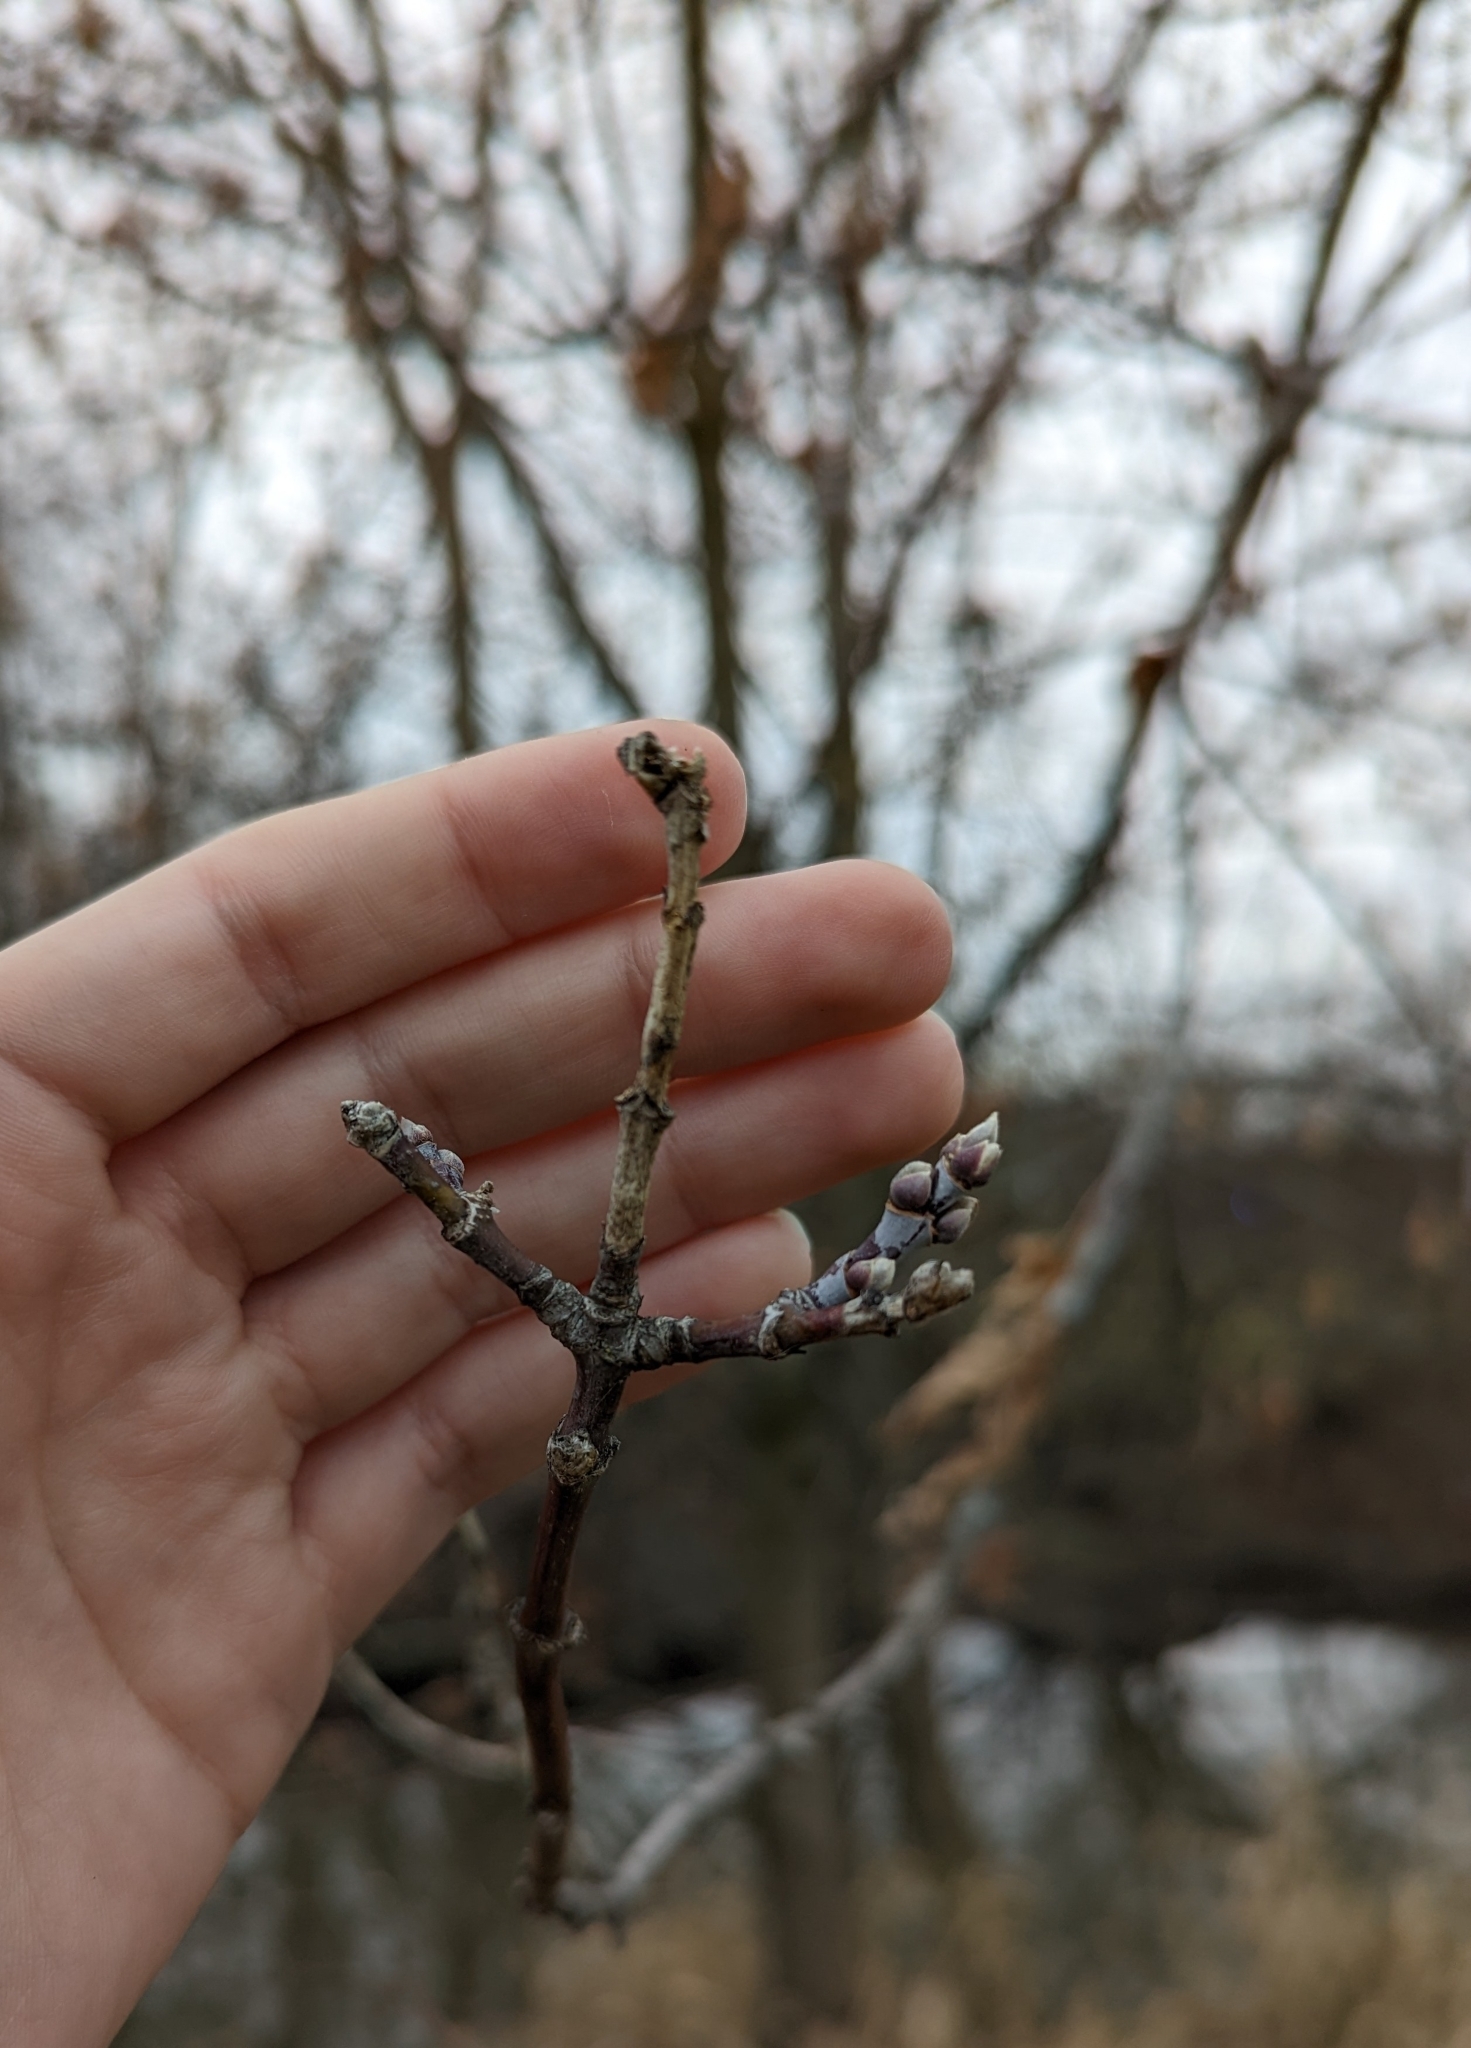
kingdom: Plantae
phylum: Tracheophyta
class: Magnoliopsida
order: Sapindales
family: Sapindaceae
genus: Acer
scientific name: Acer negundo
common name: Ashleaf maple
